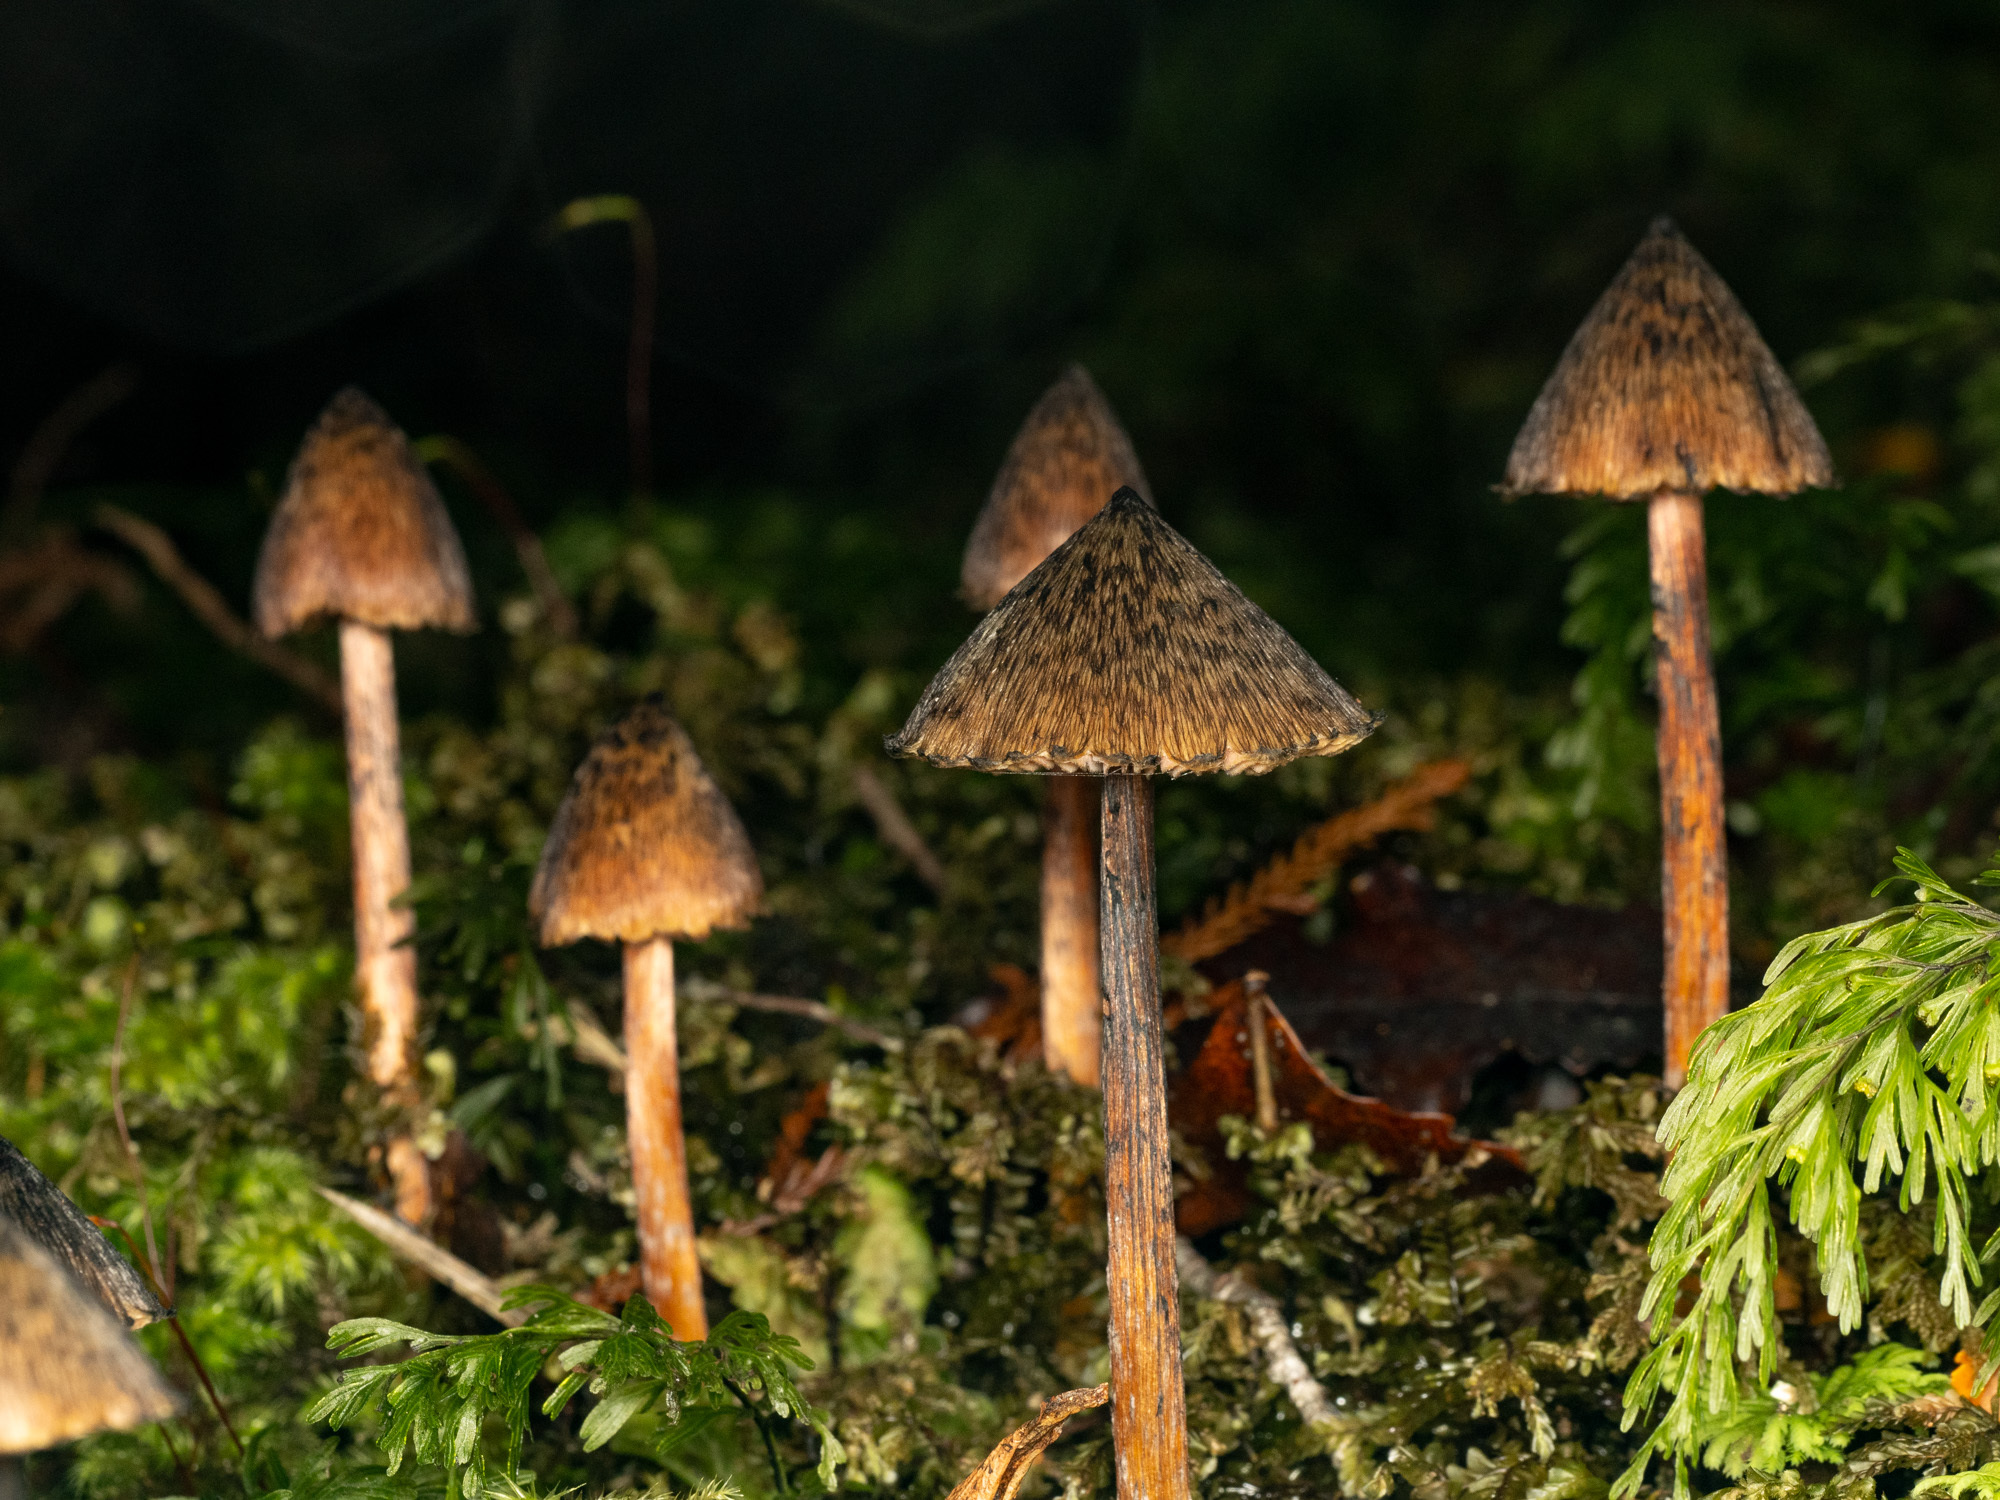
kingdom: Fungi
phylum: Basidiomycota
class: Agaricomycetes
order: Agaricales
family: Hygrophoraceae
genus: Hygrocybe
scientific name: Hygrocybe astatogala
